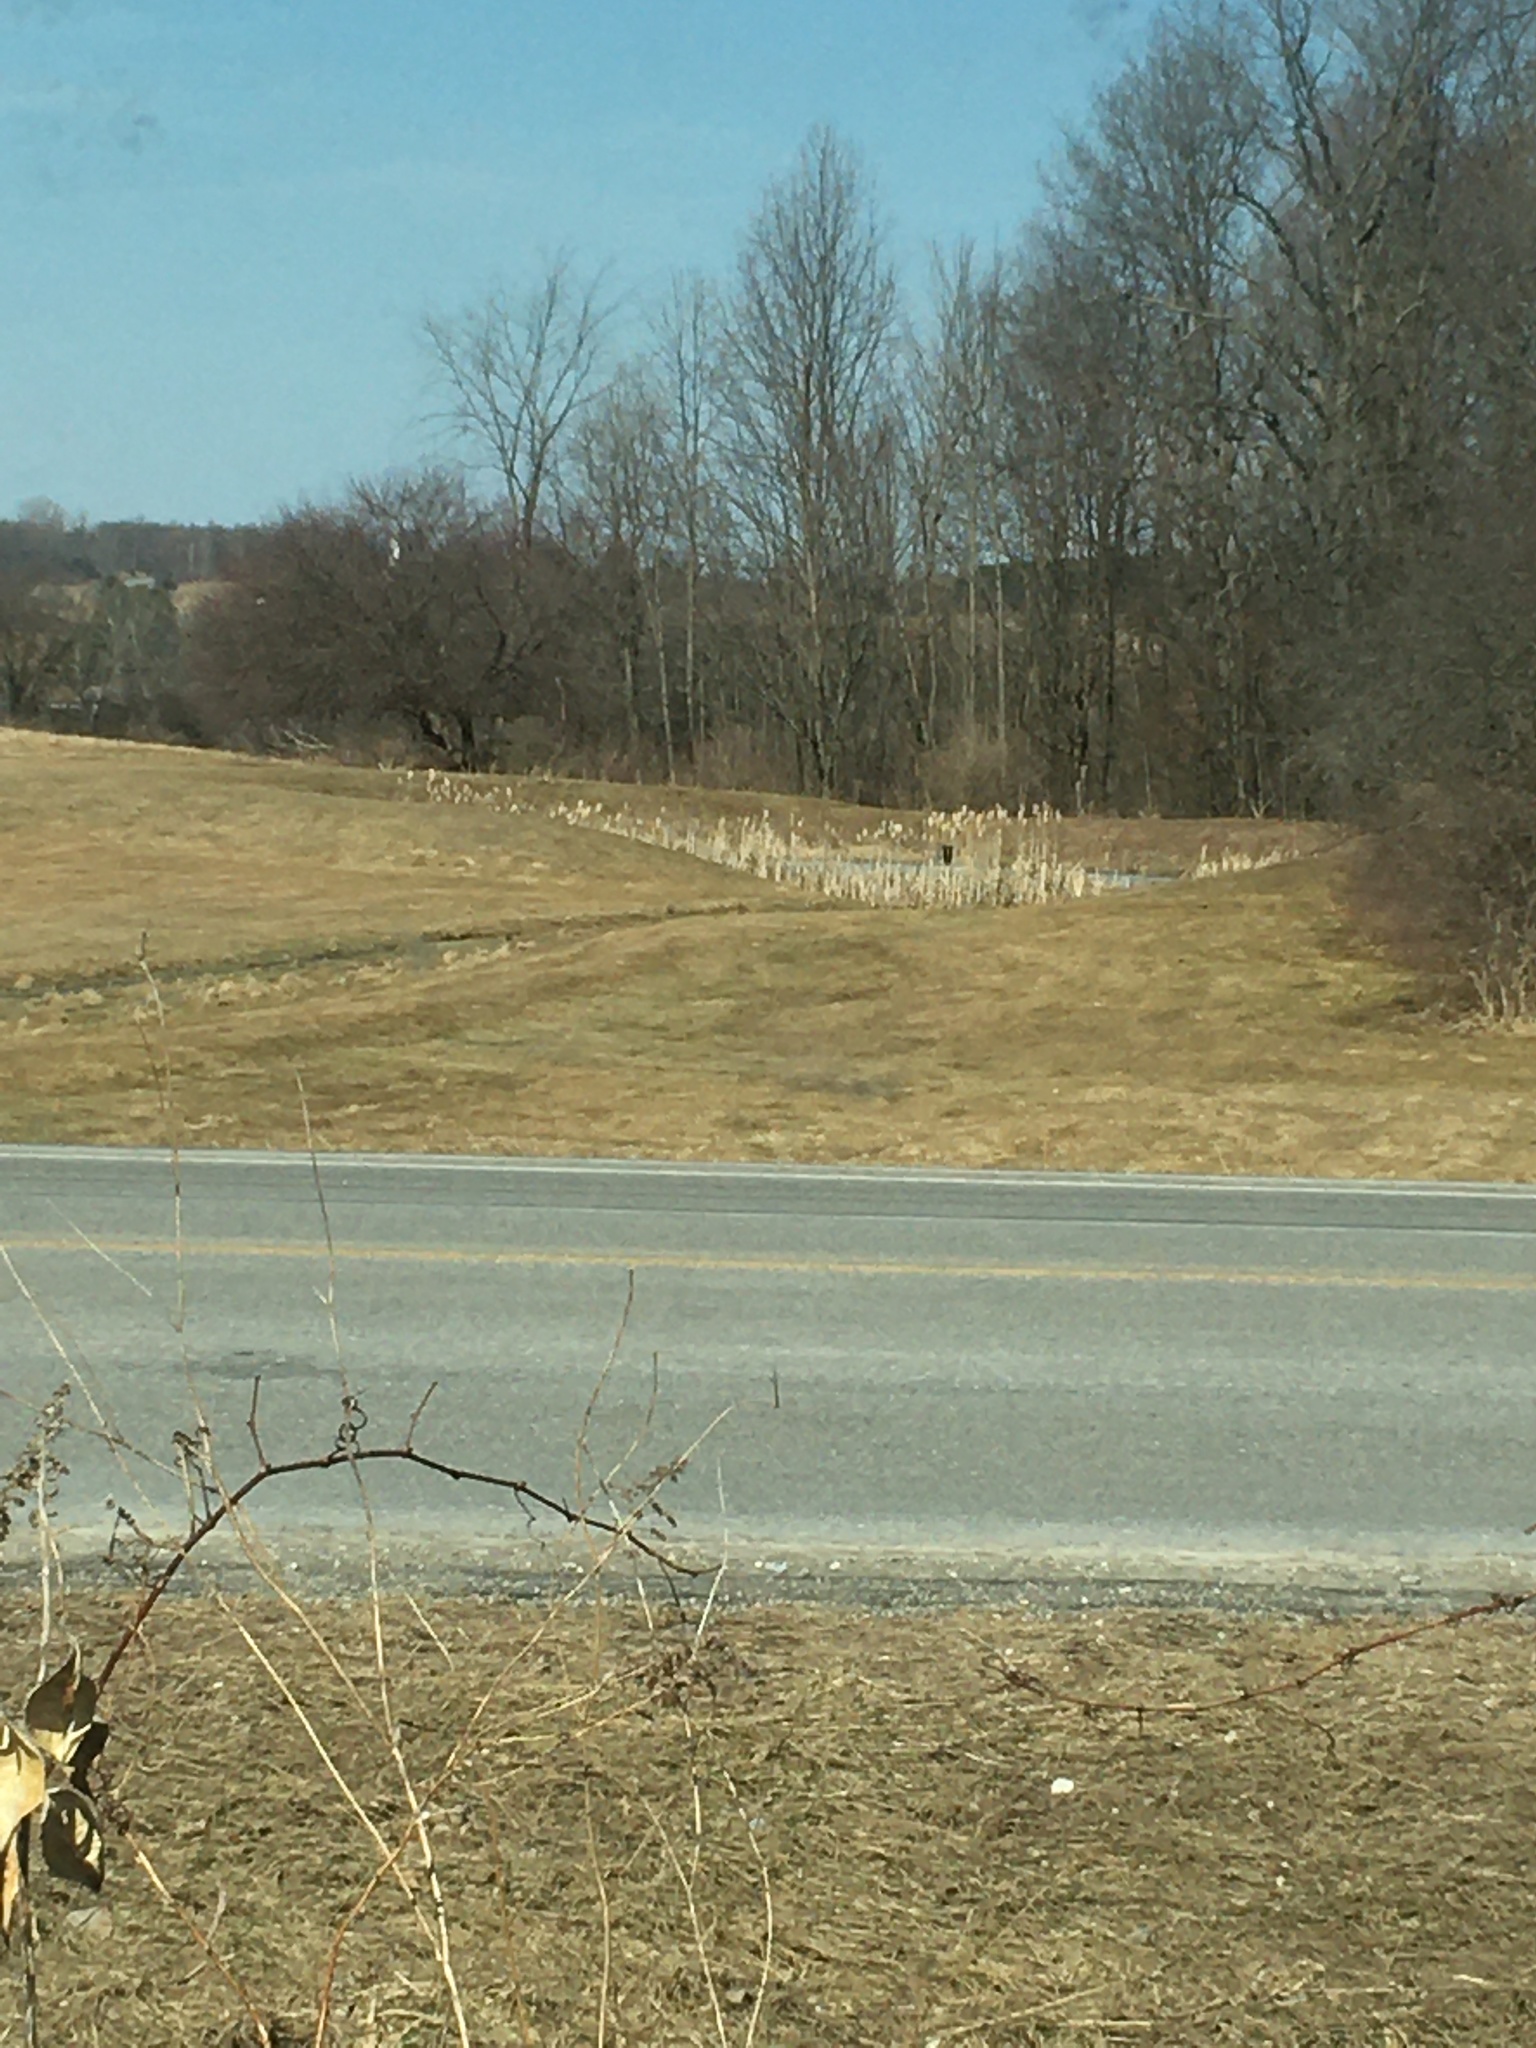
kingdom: Plantae
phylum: Tracheophyta
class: Liliopsida
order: Poales
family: Typhaceae
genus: Typha
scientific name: Typha
